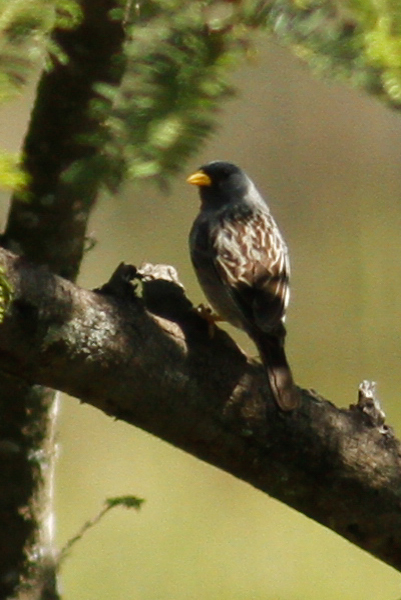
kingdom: Animalia
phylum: Chordata
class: Aves
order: Passeriformes
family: Thraupidae
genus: Porphyrospiza
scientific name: Porphyrospiza alaudina
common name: Band-tailed sierra finch
